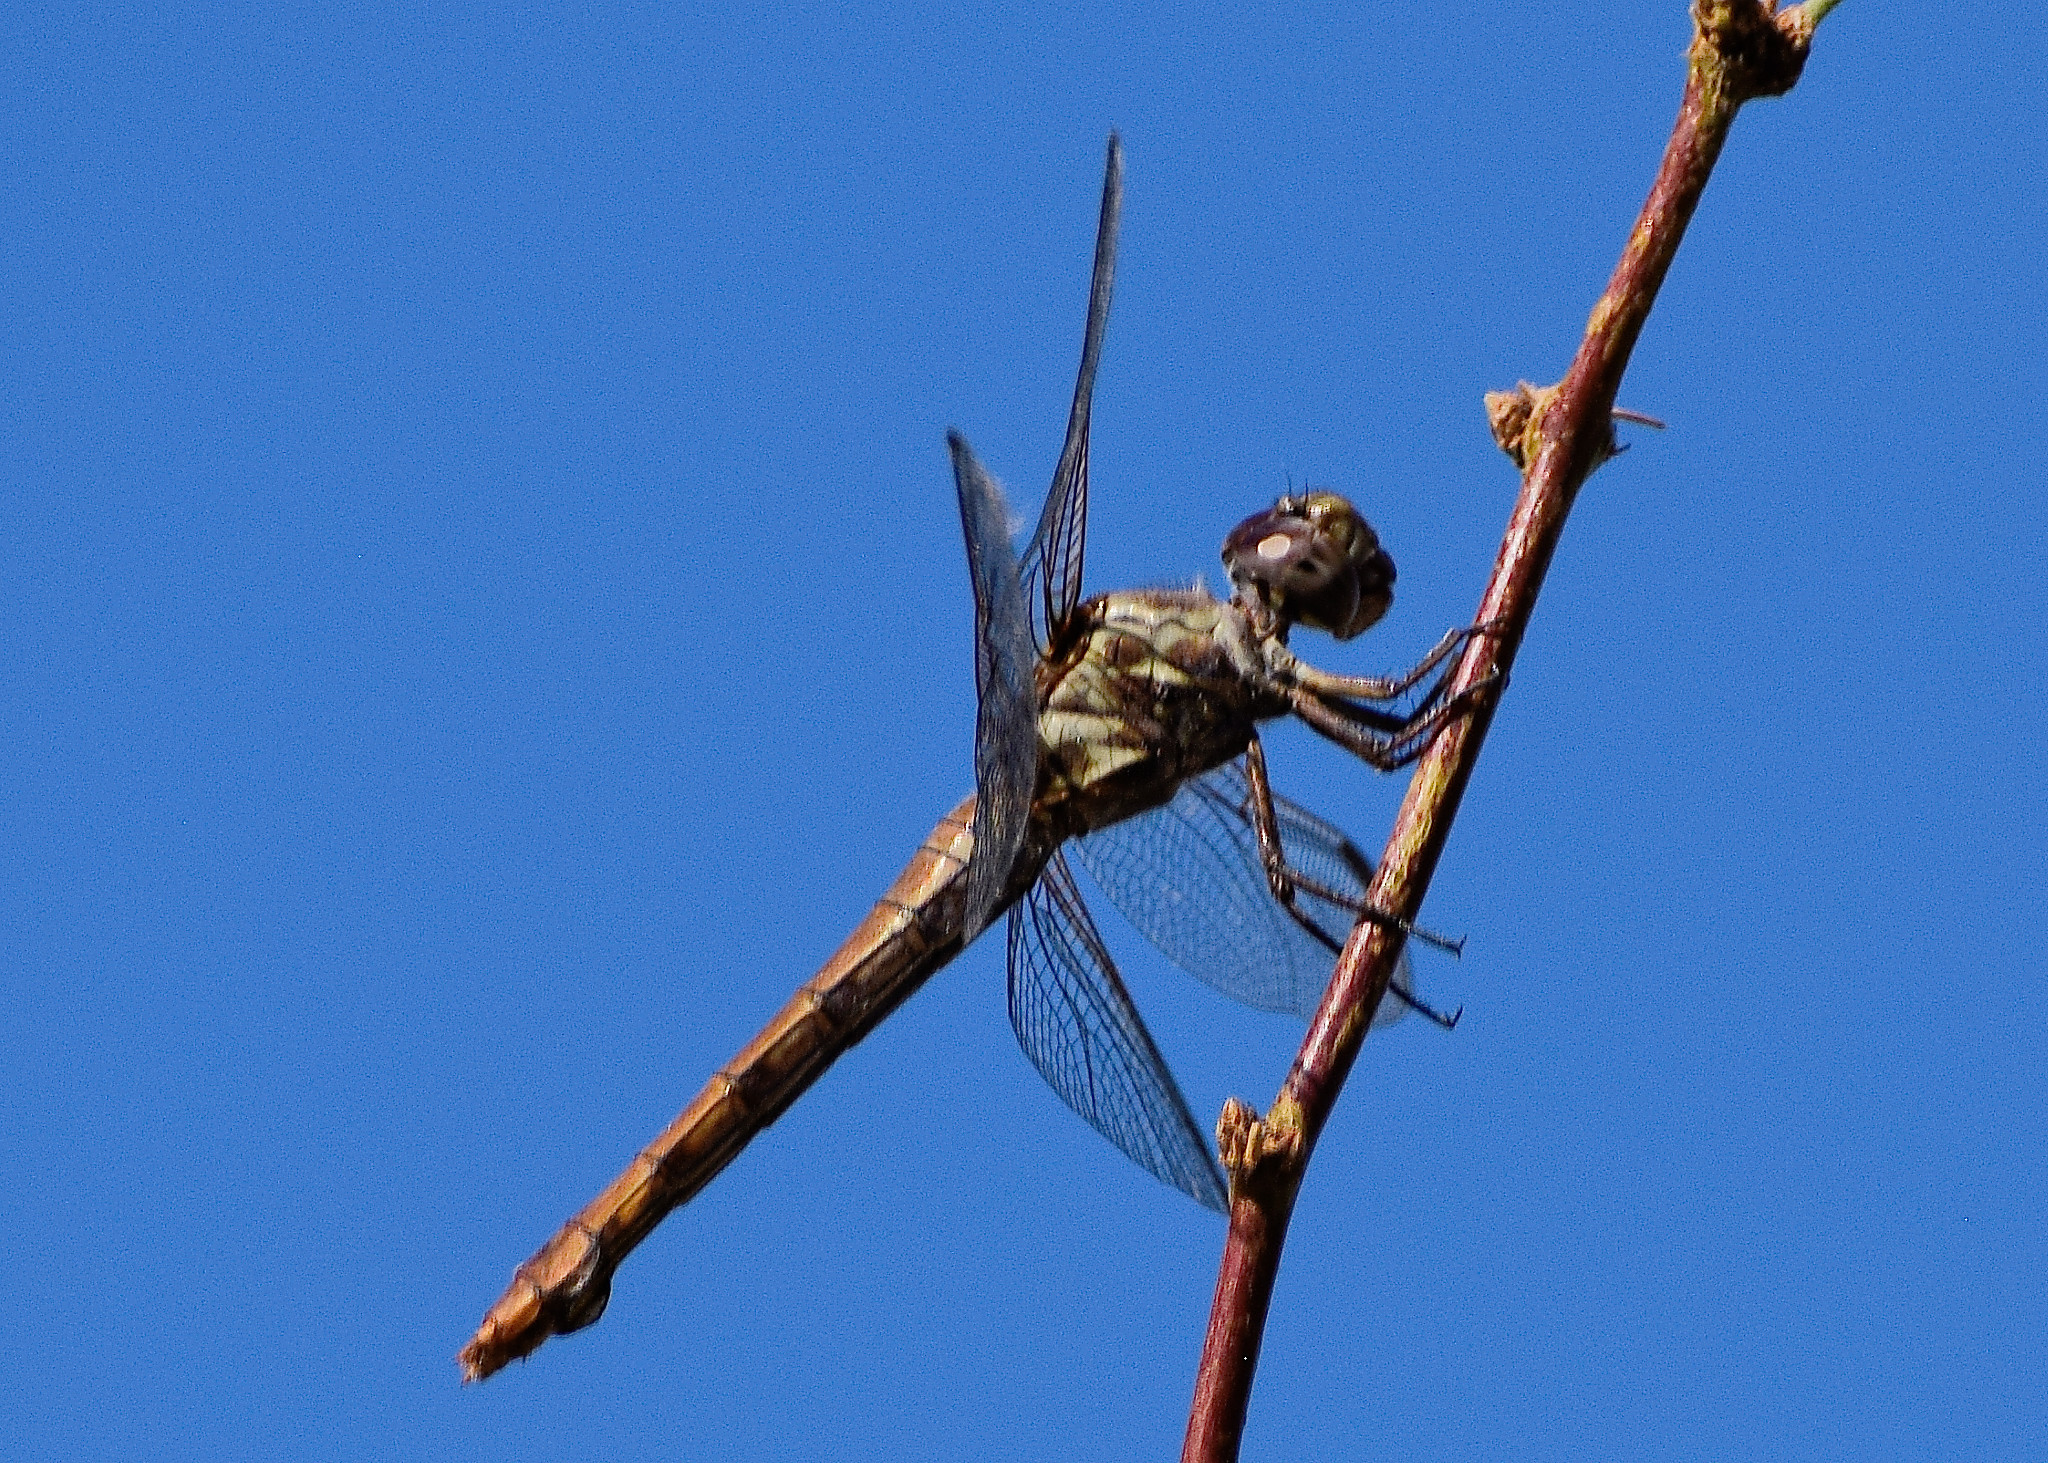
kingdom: Animalia
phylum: Arthropoda
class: Insecta
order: Odonata
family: Libellulidae
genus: Orthemis
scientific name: Orthemis ferruginea
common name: Roseate skimmer
